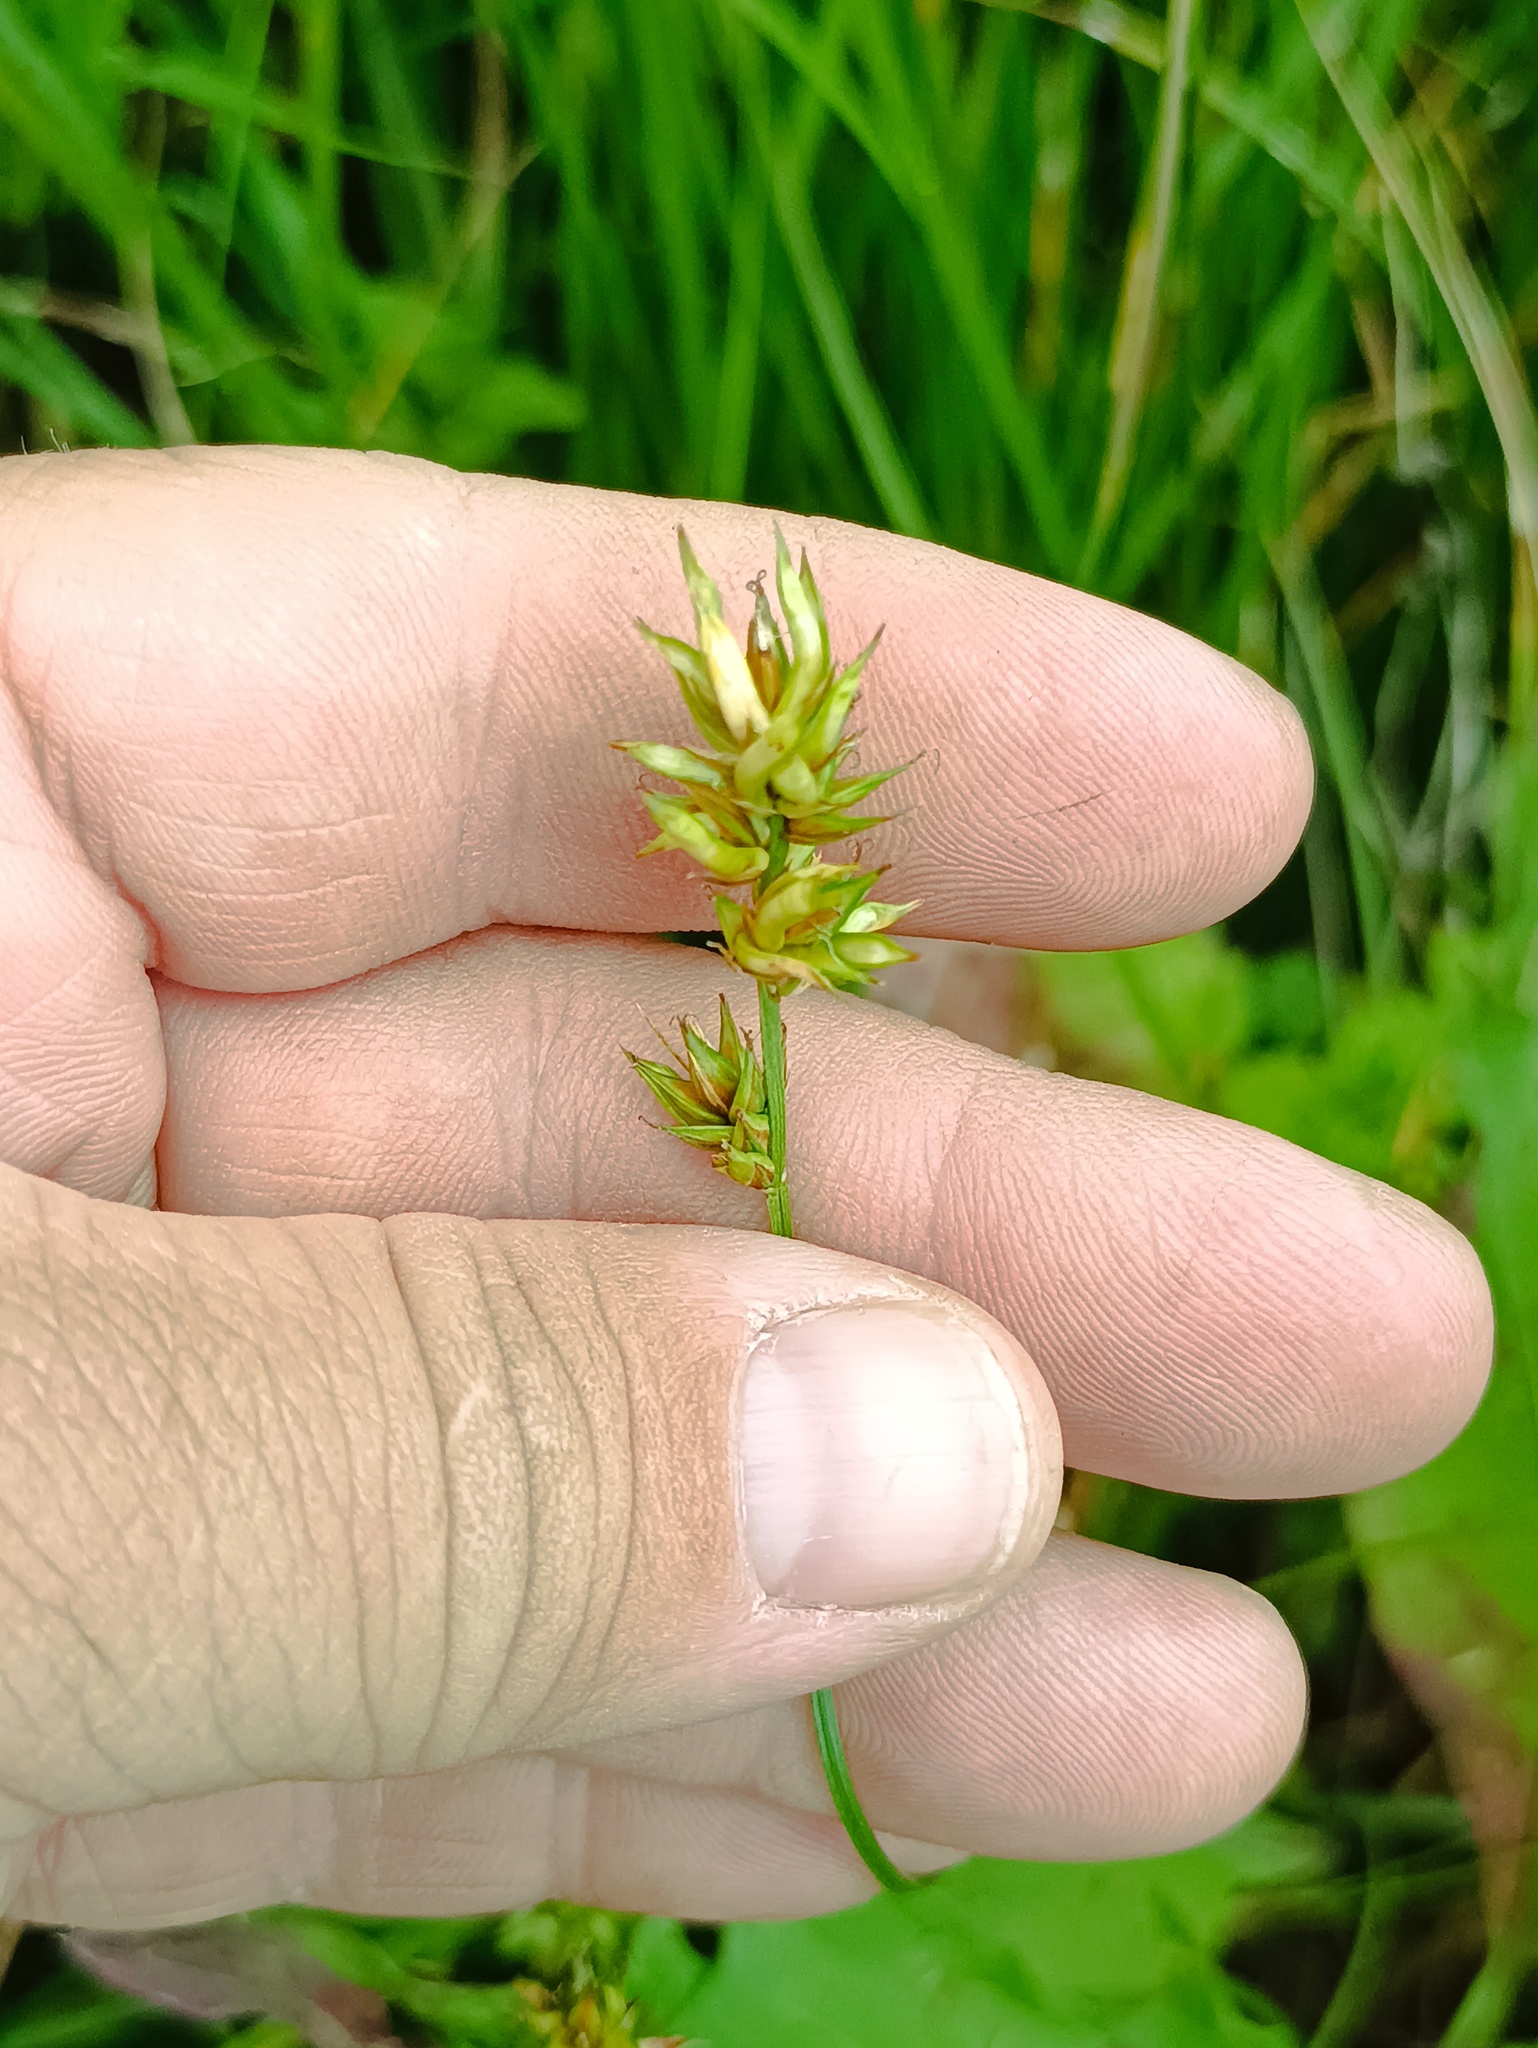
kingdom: Plantae
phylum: Tracheophyta
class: Liliopsida
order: Poales
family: Cyperaceae
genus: Carex
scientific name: Carex spicata
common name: Spiked sedge
